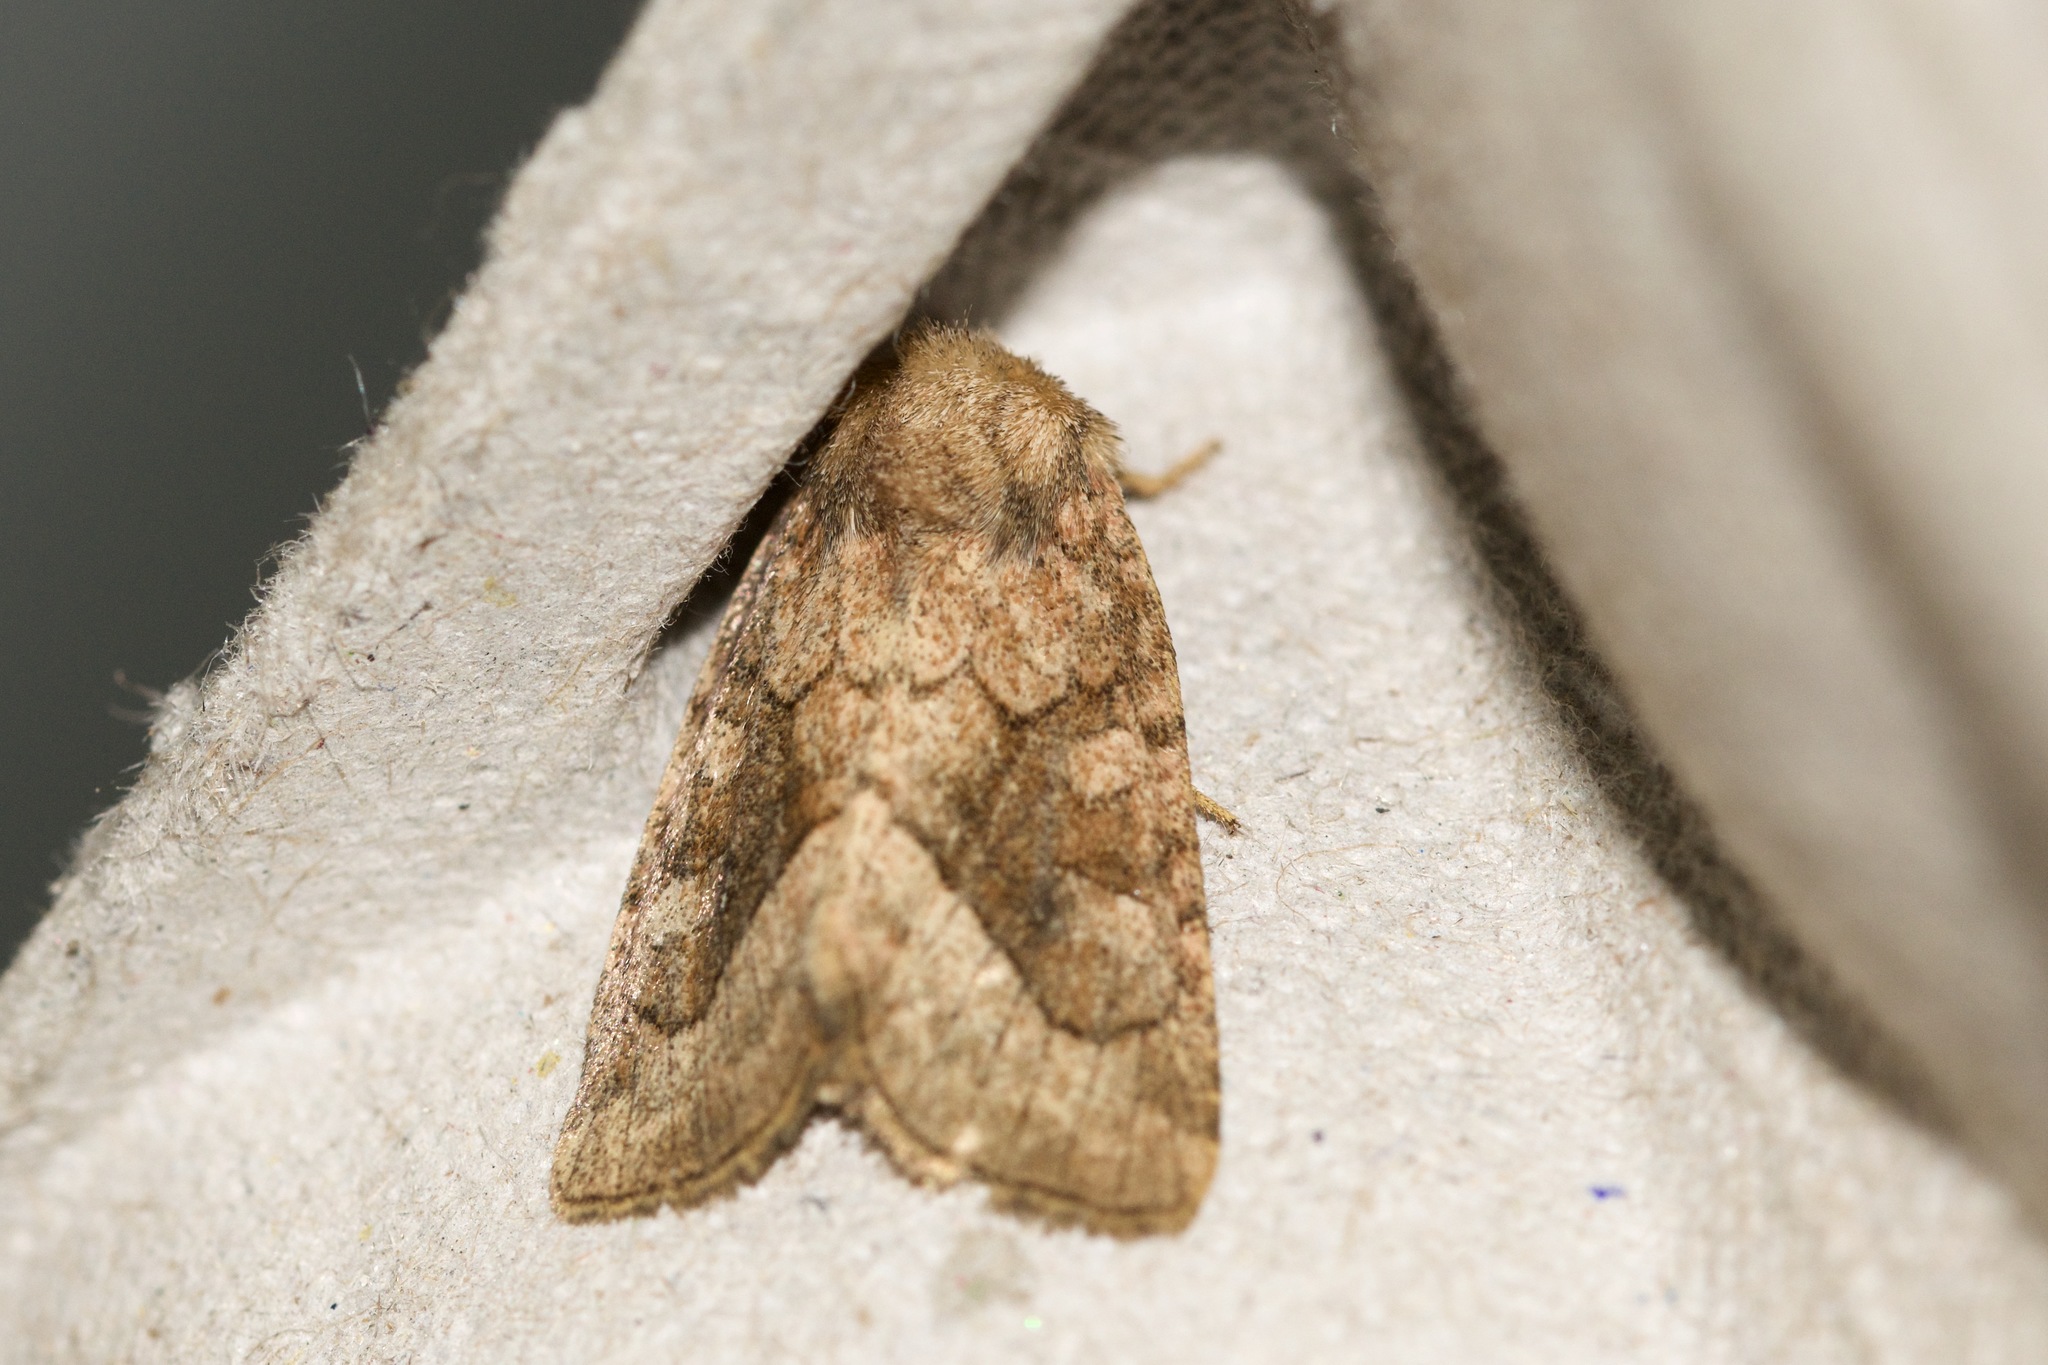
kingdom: Animalia
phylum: Arthropoda
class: Insecta
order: Lepidoptera
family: Noctuidae
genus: Lacinipolia
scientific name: Lacinipolia lorea
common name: Bridled arches moth
